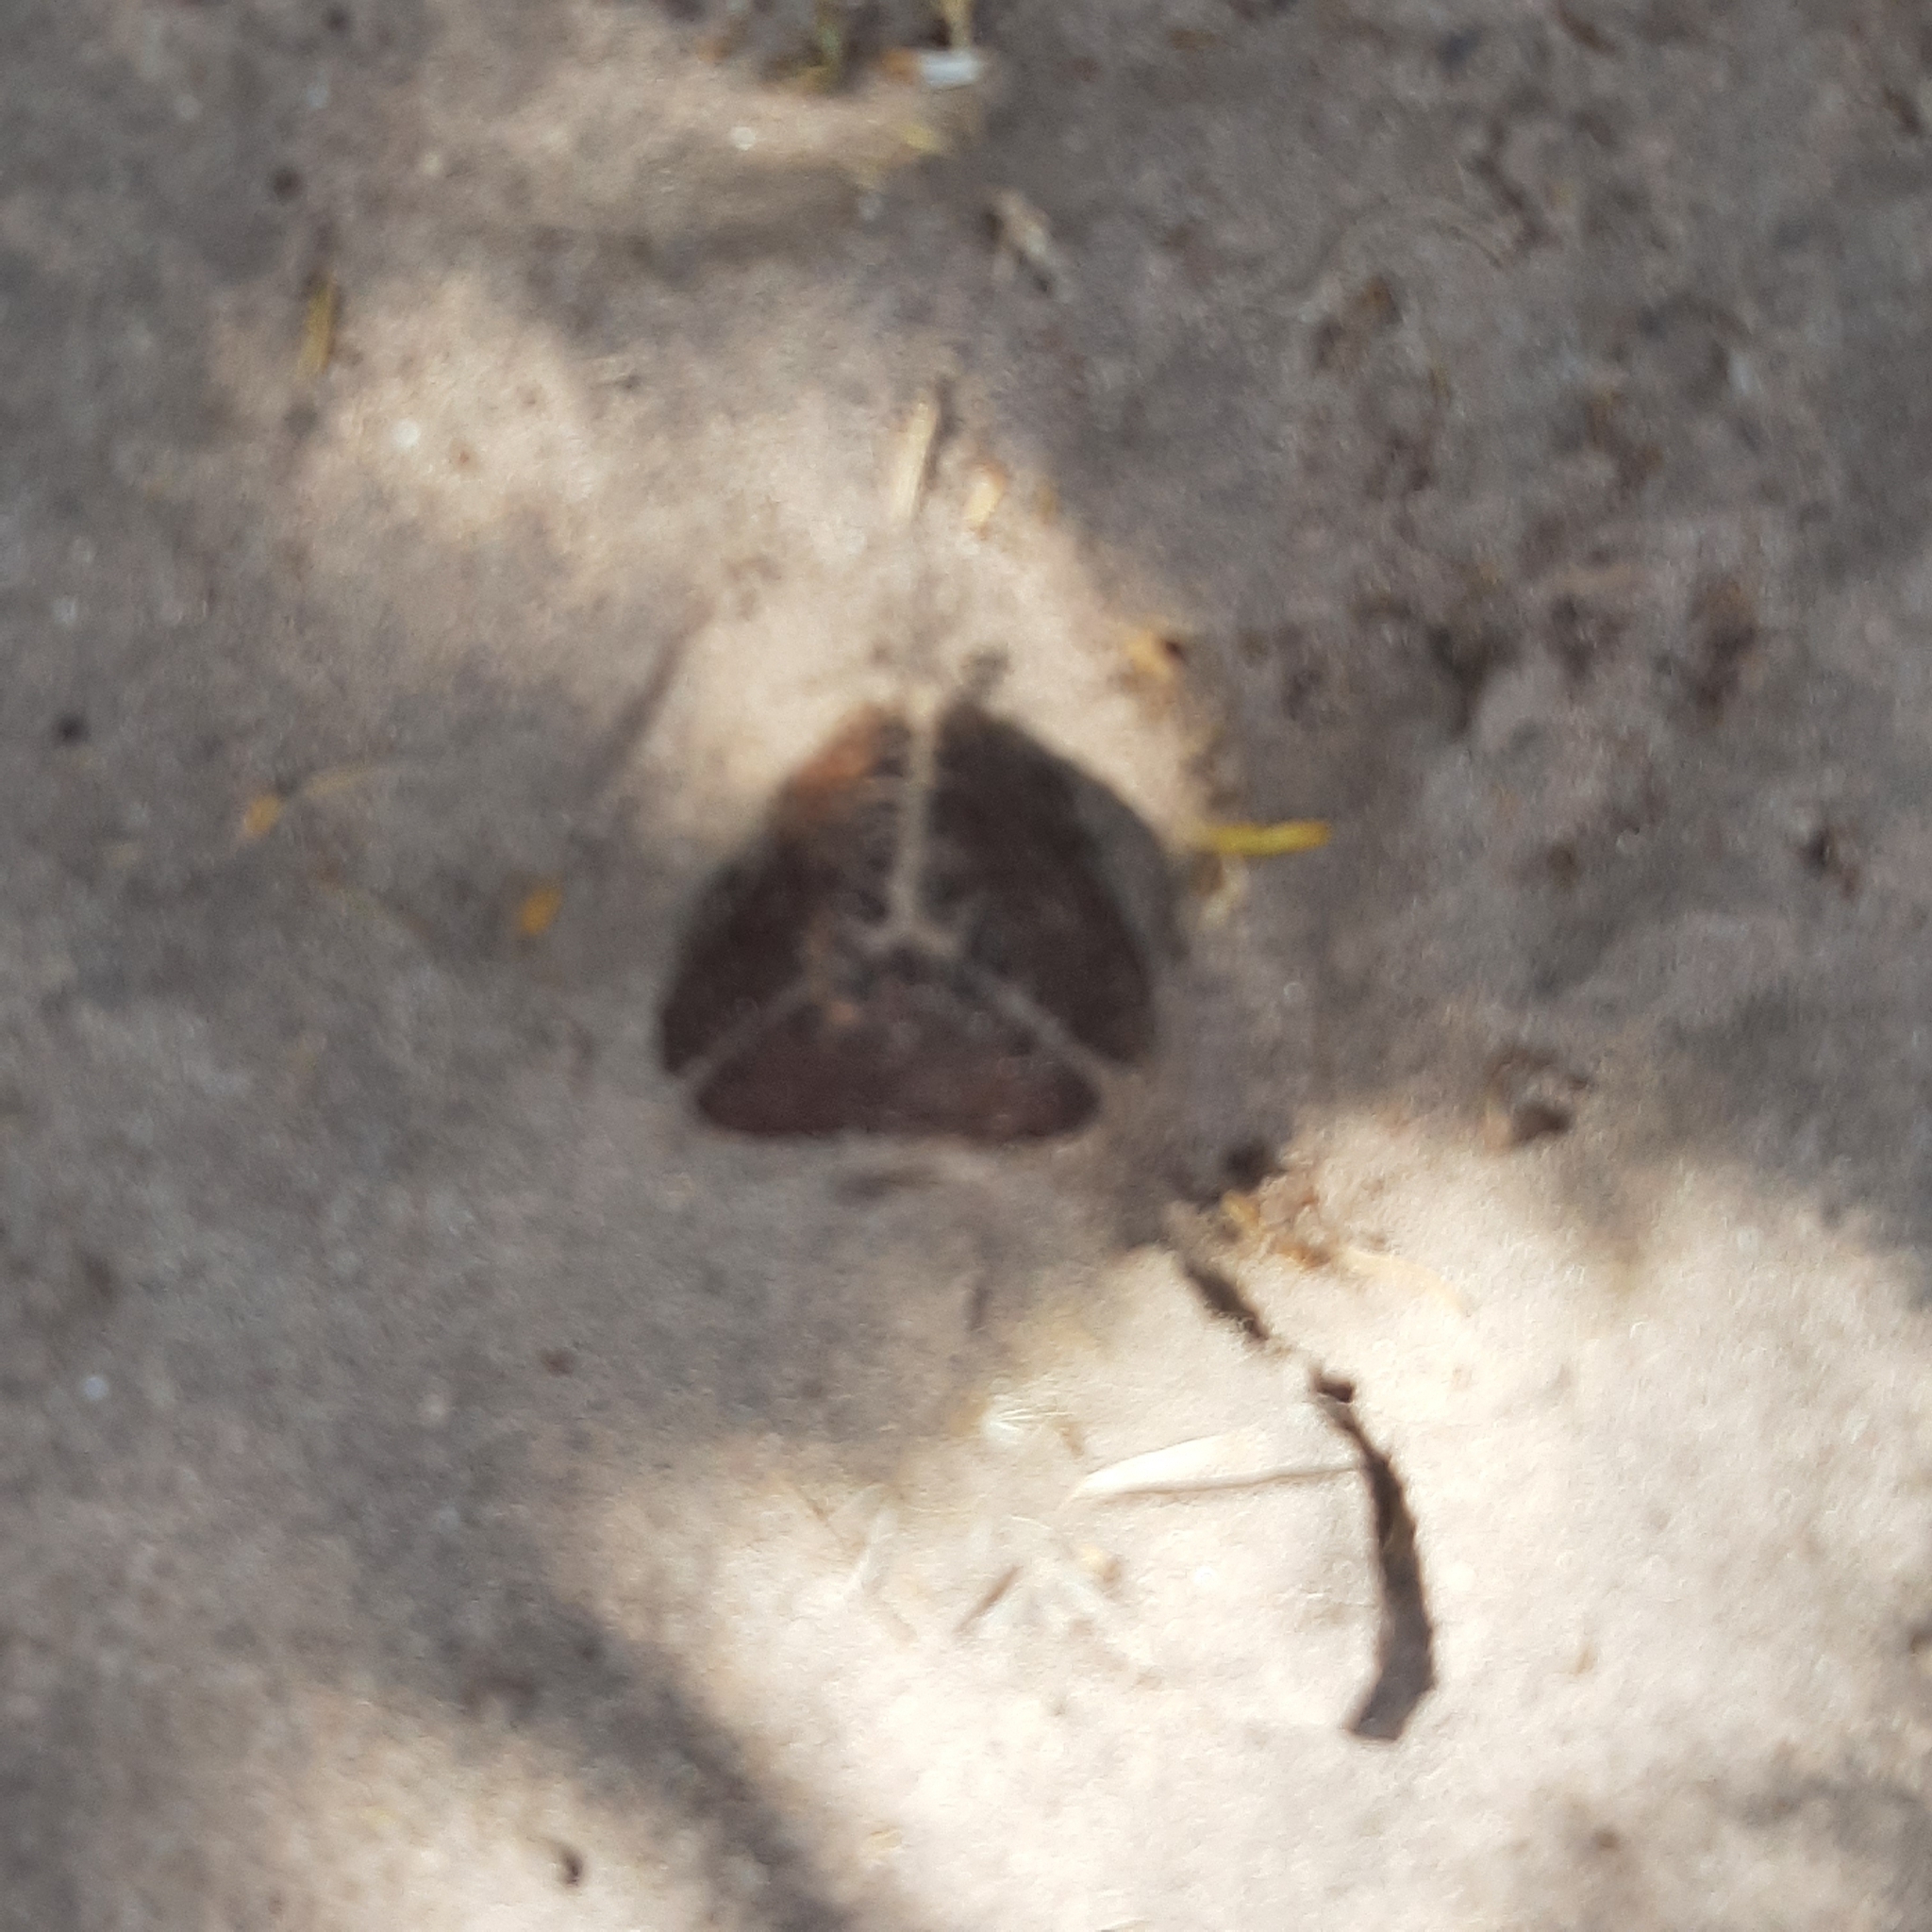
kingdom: Plantae
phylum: Tracheophyta
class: Magnoliopsida
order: Piperales
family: Hydnoraceae
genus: Prosopanche
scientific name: Prosopanche americana
